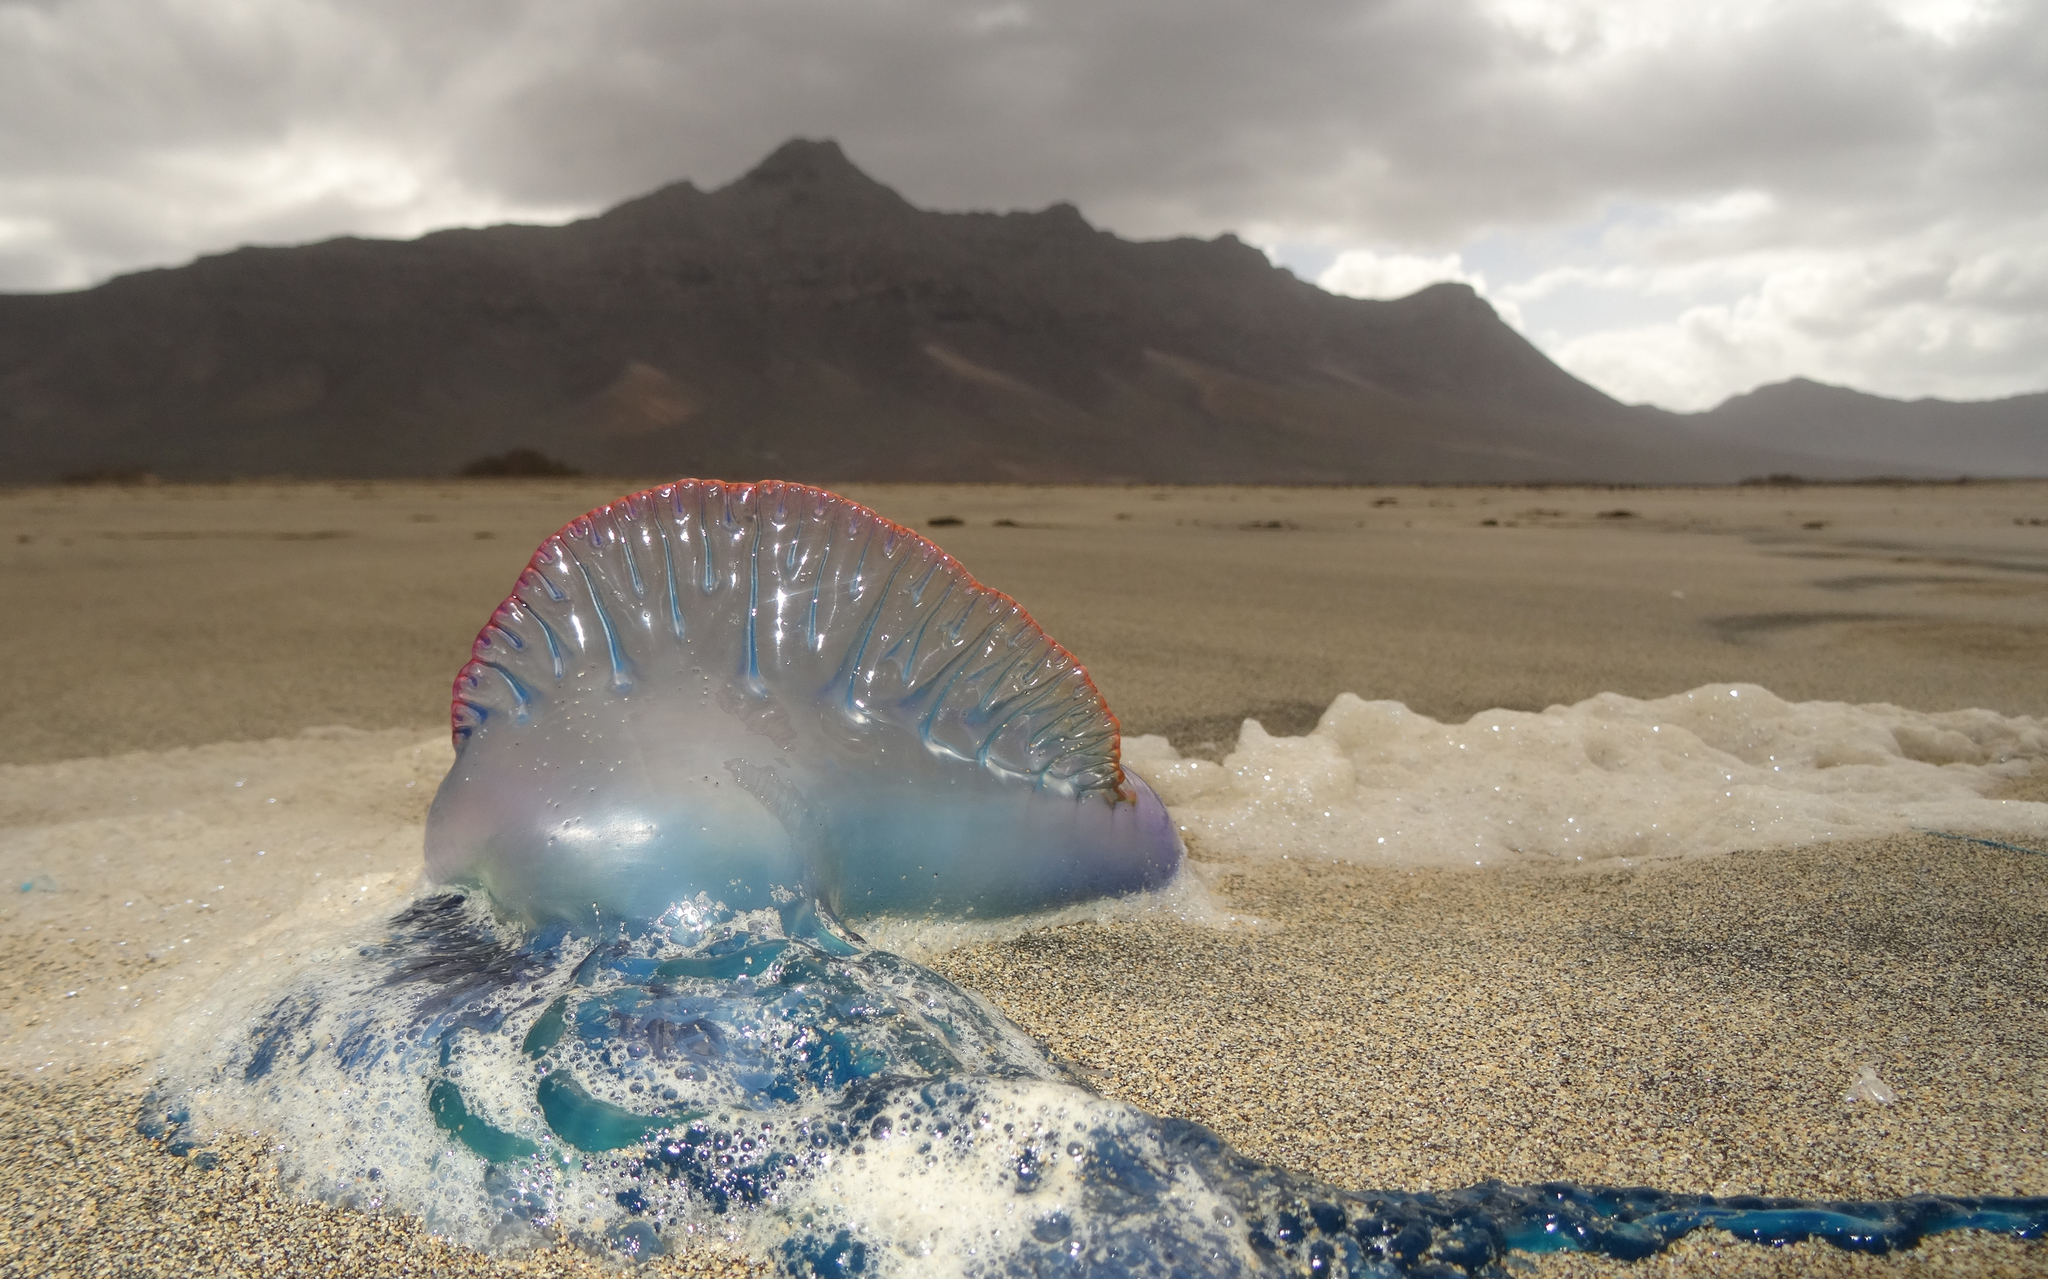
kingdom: Animalia
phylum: Cnidaria
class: Hydrozoa
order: Siphonophorae
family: Physaliidae
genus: Physalia
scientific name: Physalia physalis
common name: Portuguese man-of-war
